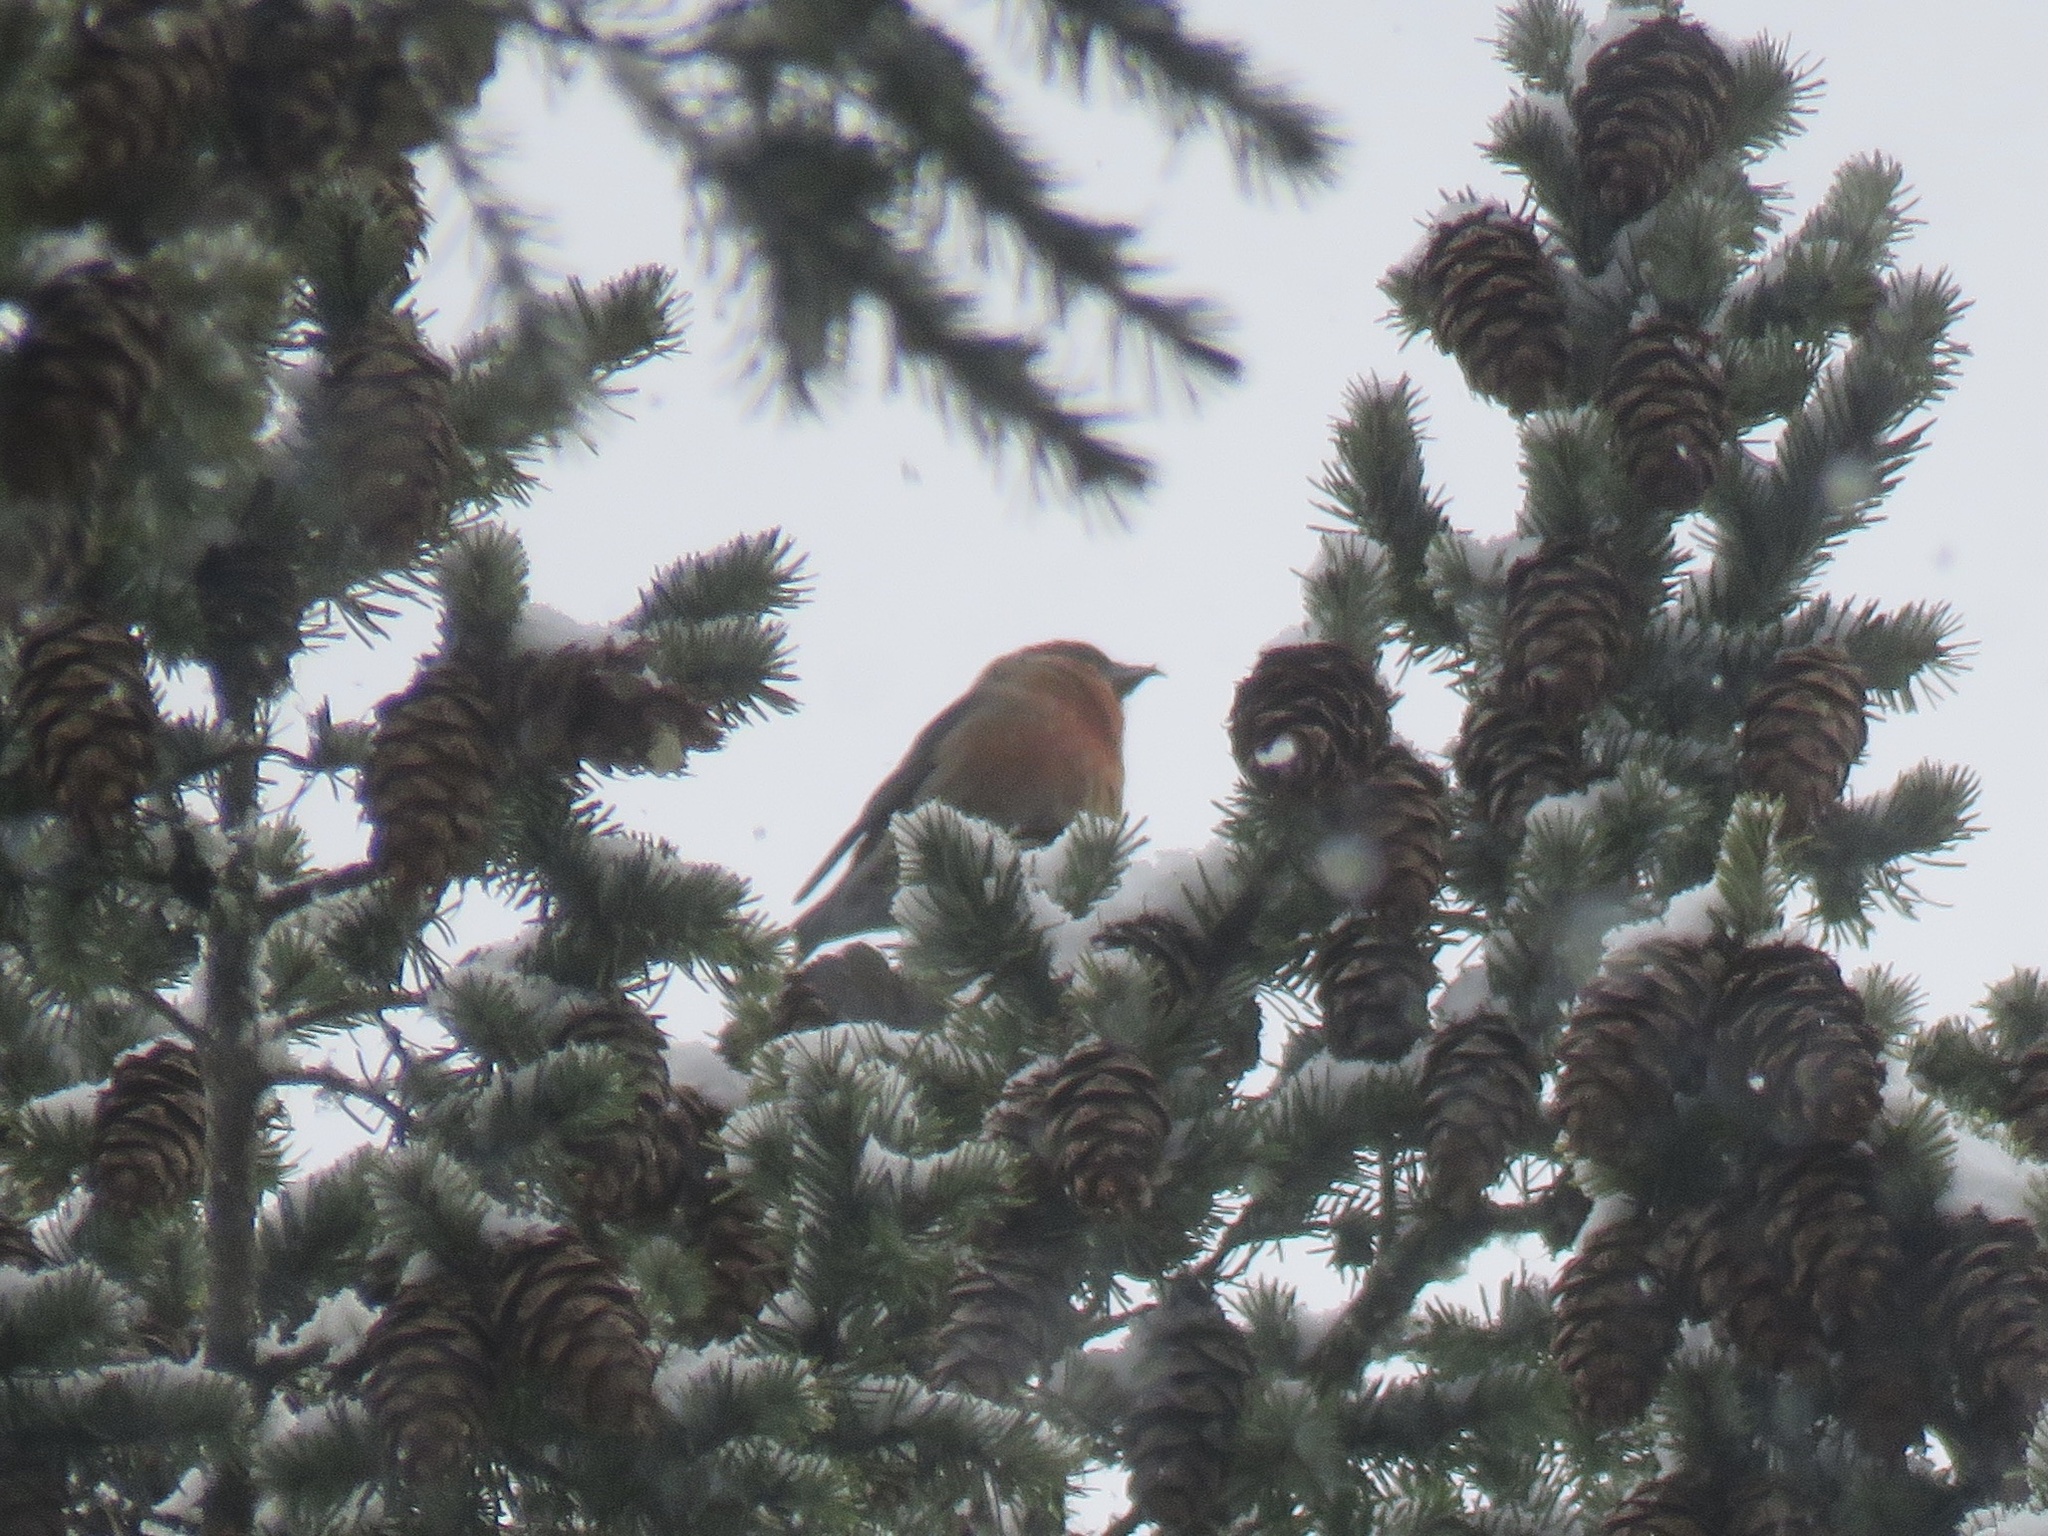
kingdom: Animalia
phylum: Chordata
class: Aves
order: Passeriformes
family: Fringillidae
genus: Loxia
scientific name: Loxia curvirostra
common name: Red crossbill
